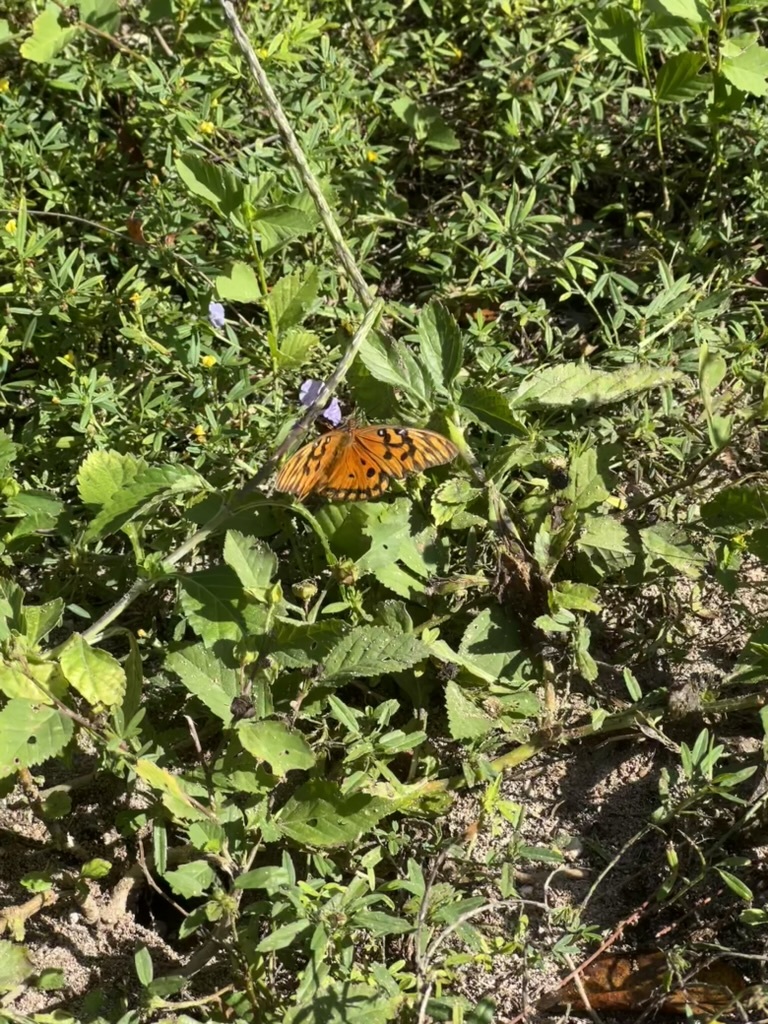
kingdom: Animalia
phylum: Arthropoda
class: Insecta
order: Lepidoptera
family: Nymphalidae
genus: Dione
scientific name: Dione vanillae
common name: Gulf fritillary
